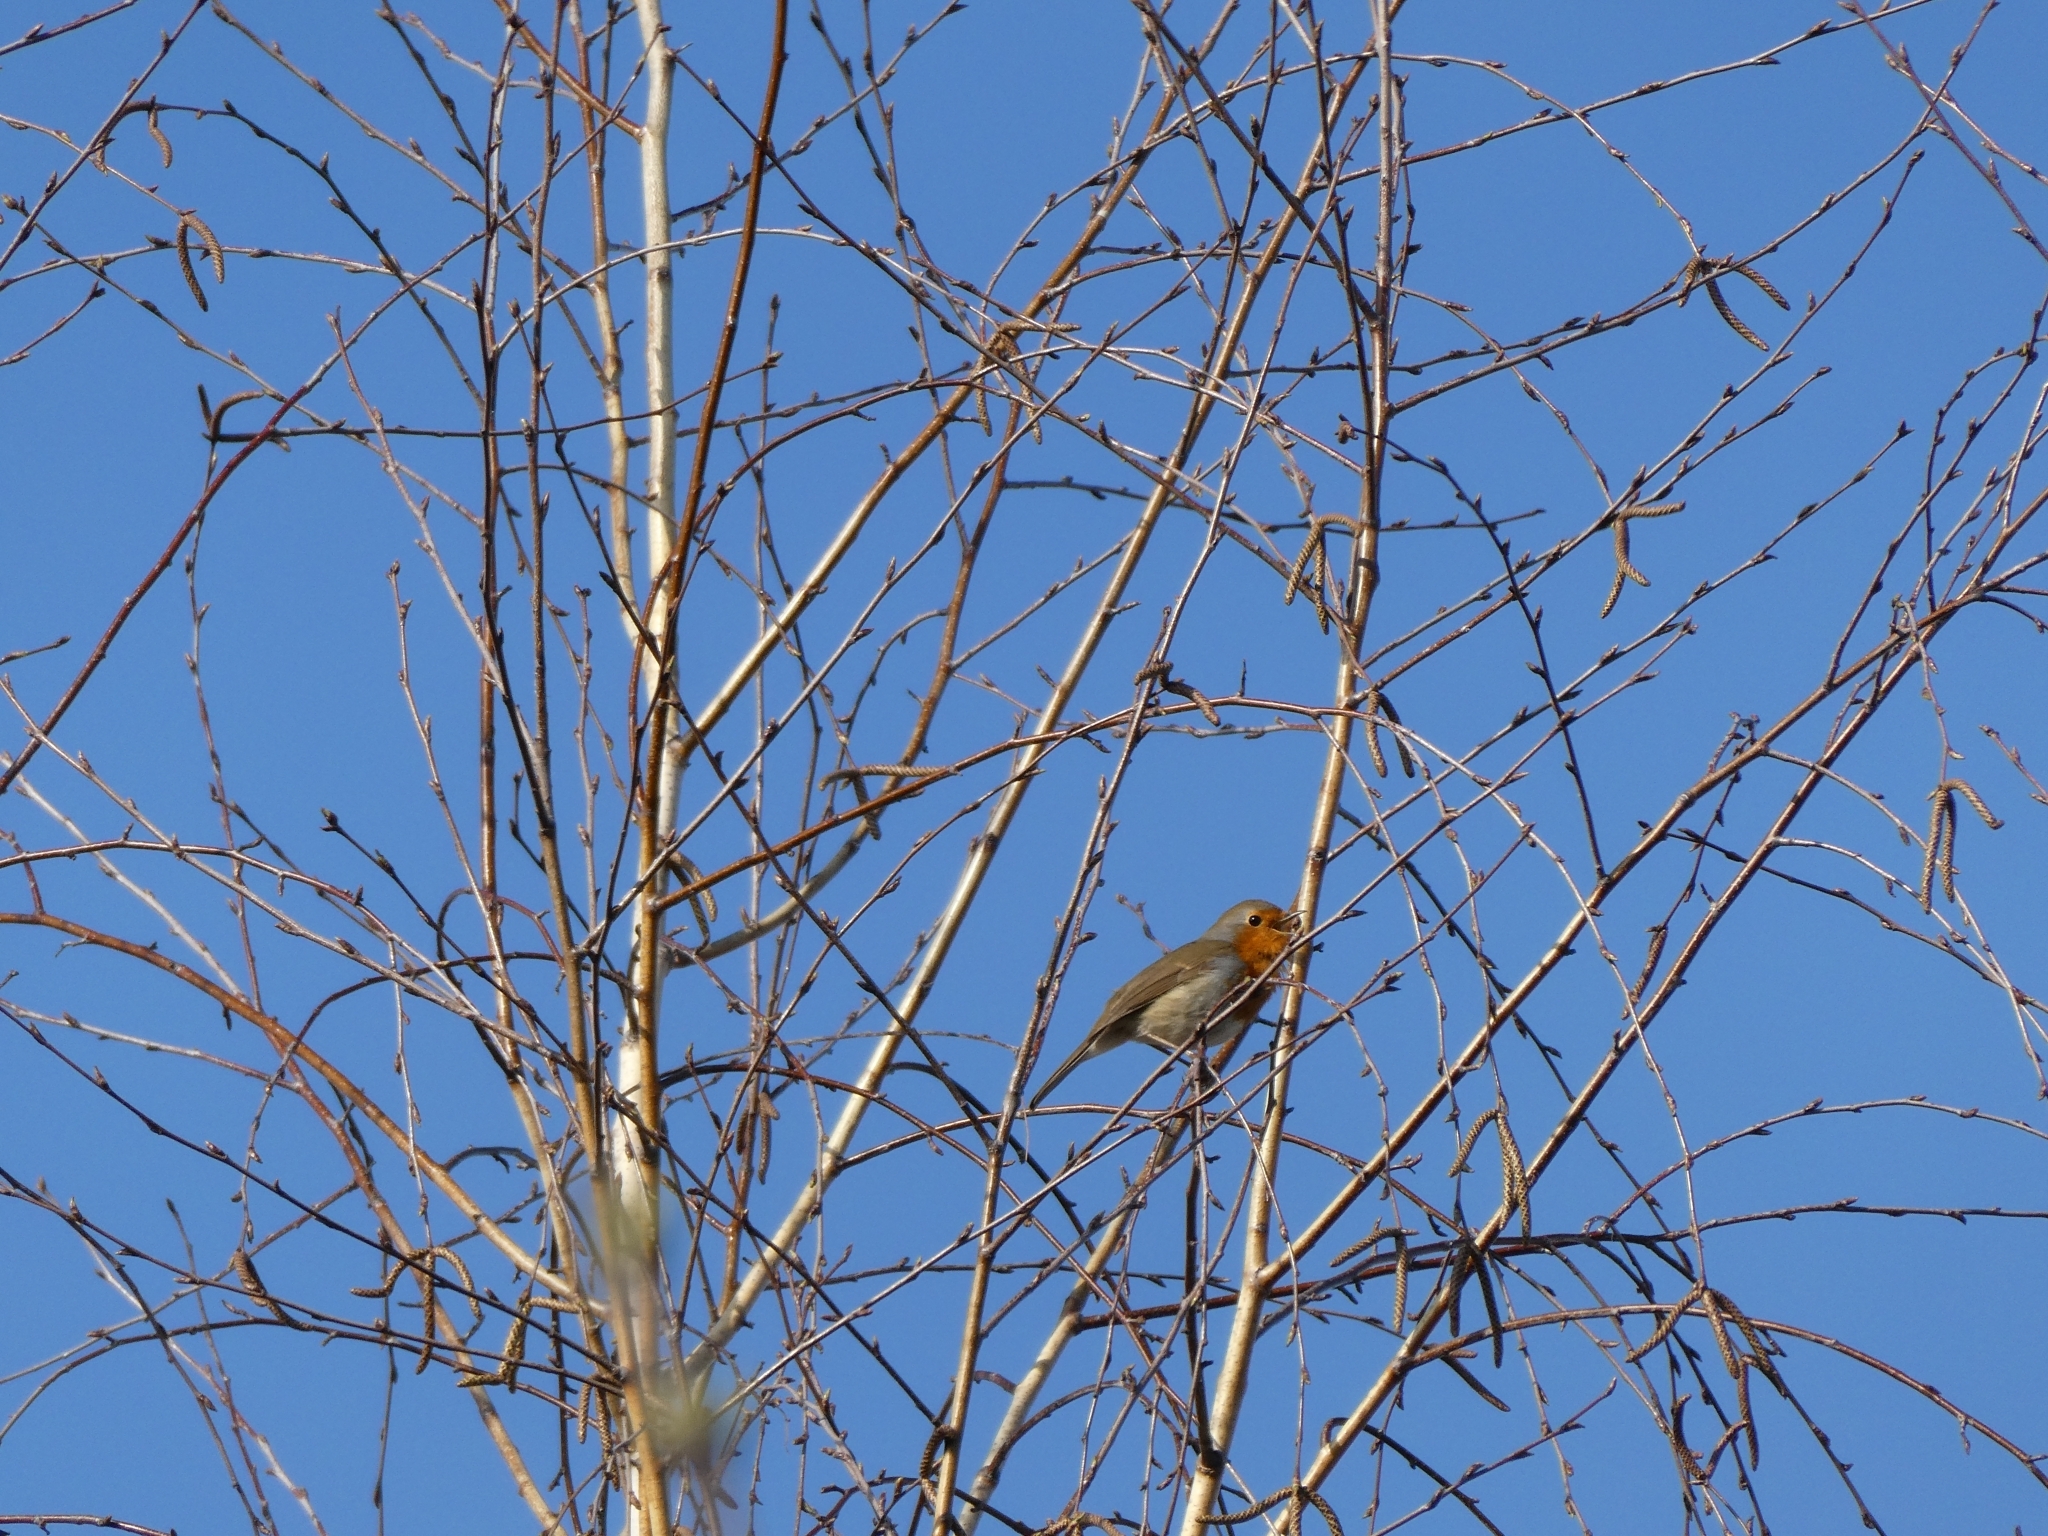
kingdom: Animalia
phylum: Chordata
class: Aves
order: Passeriformes
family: Muscicapidae
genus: Erithacus
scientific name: Erithacus rubecula
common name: European robin
